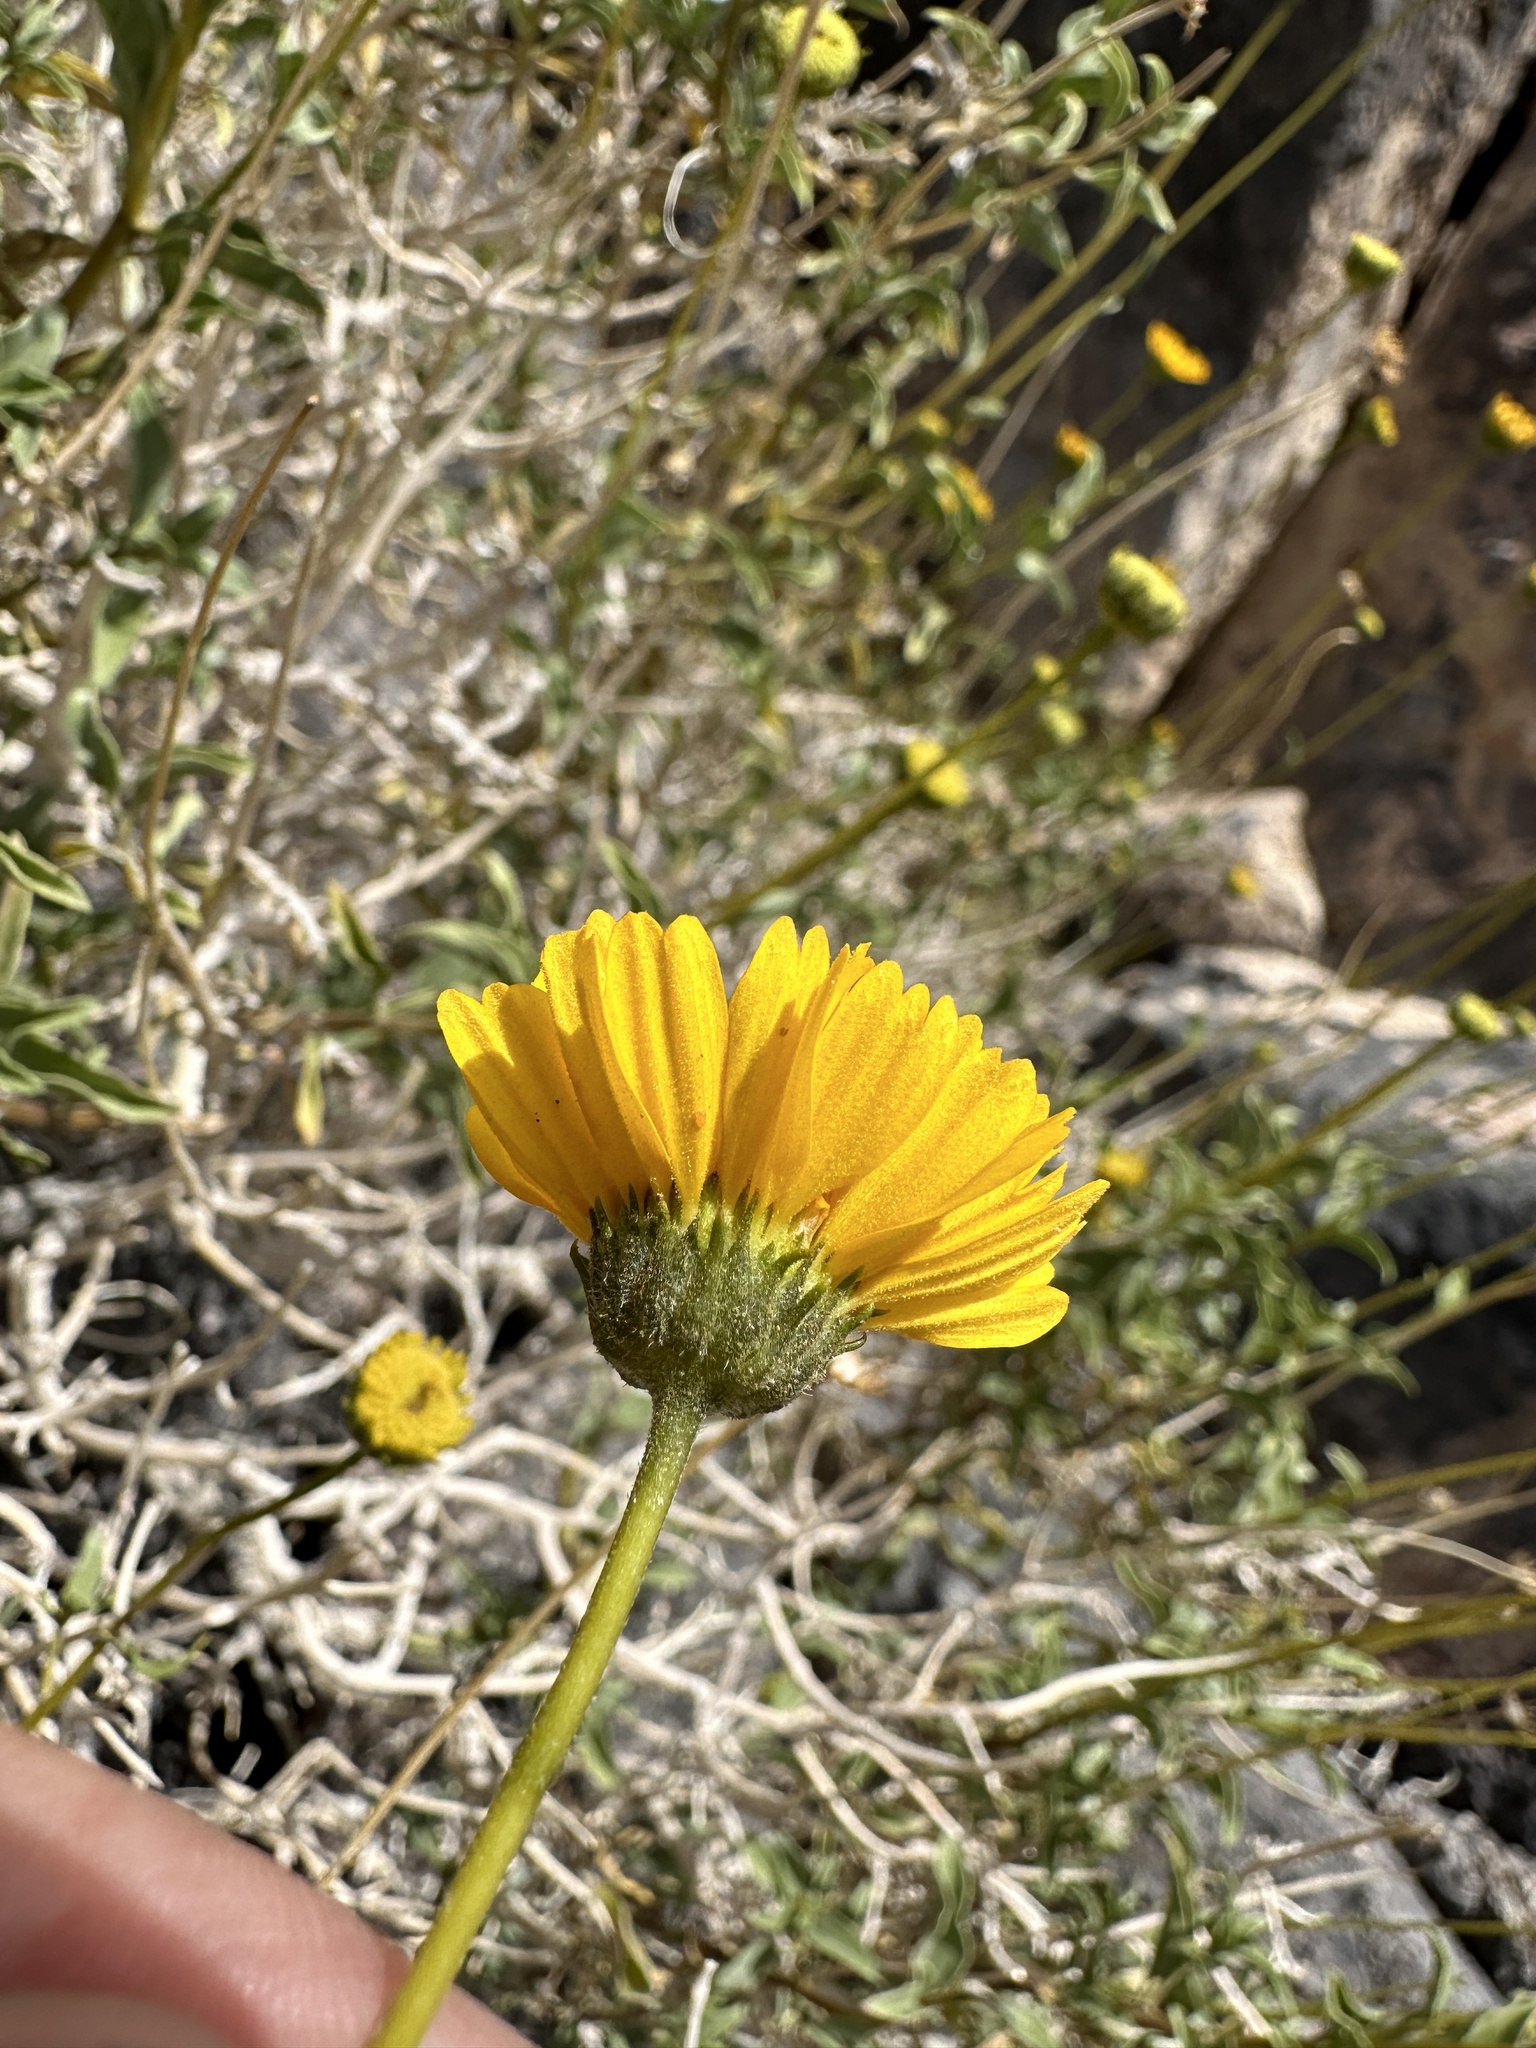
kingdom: Plantae
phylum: Tracheophyta
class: Magnoliopsida
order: Asterales
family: Asteraceae
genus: Encelia
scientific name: Encelia virginensis
